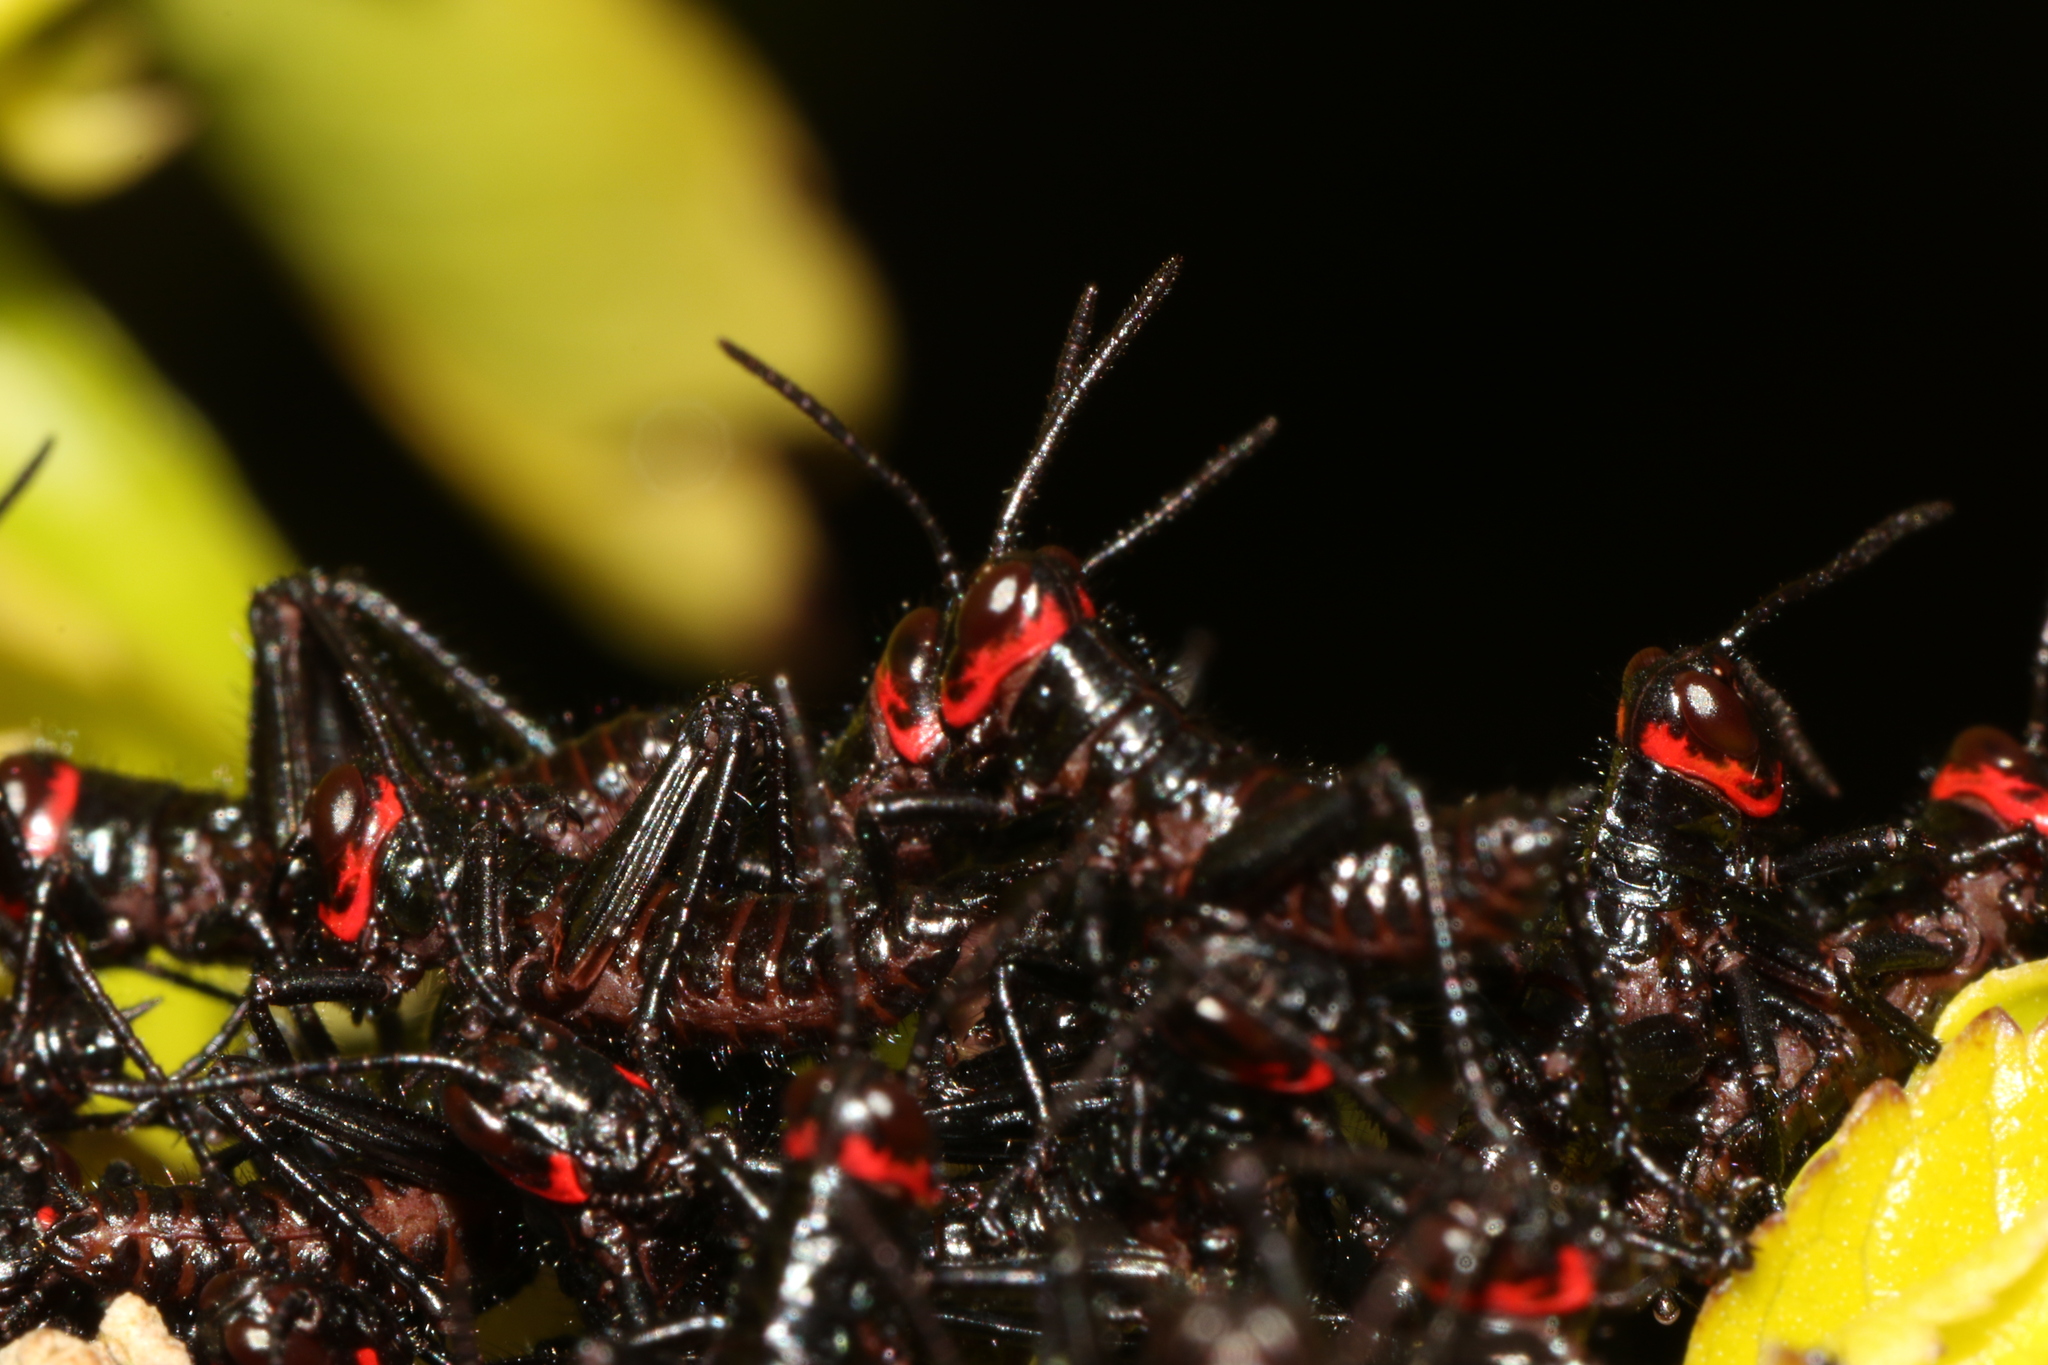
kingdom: Animalia
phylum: Arthropoda
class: Insecta
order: Orthoptera
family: Romaleidae
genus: Chromacris
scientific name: Chromacris speciosa
